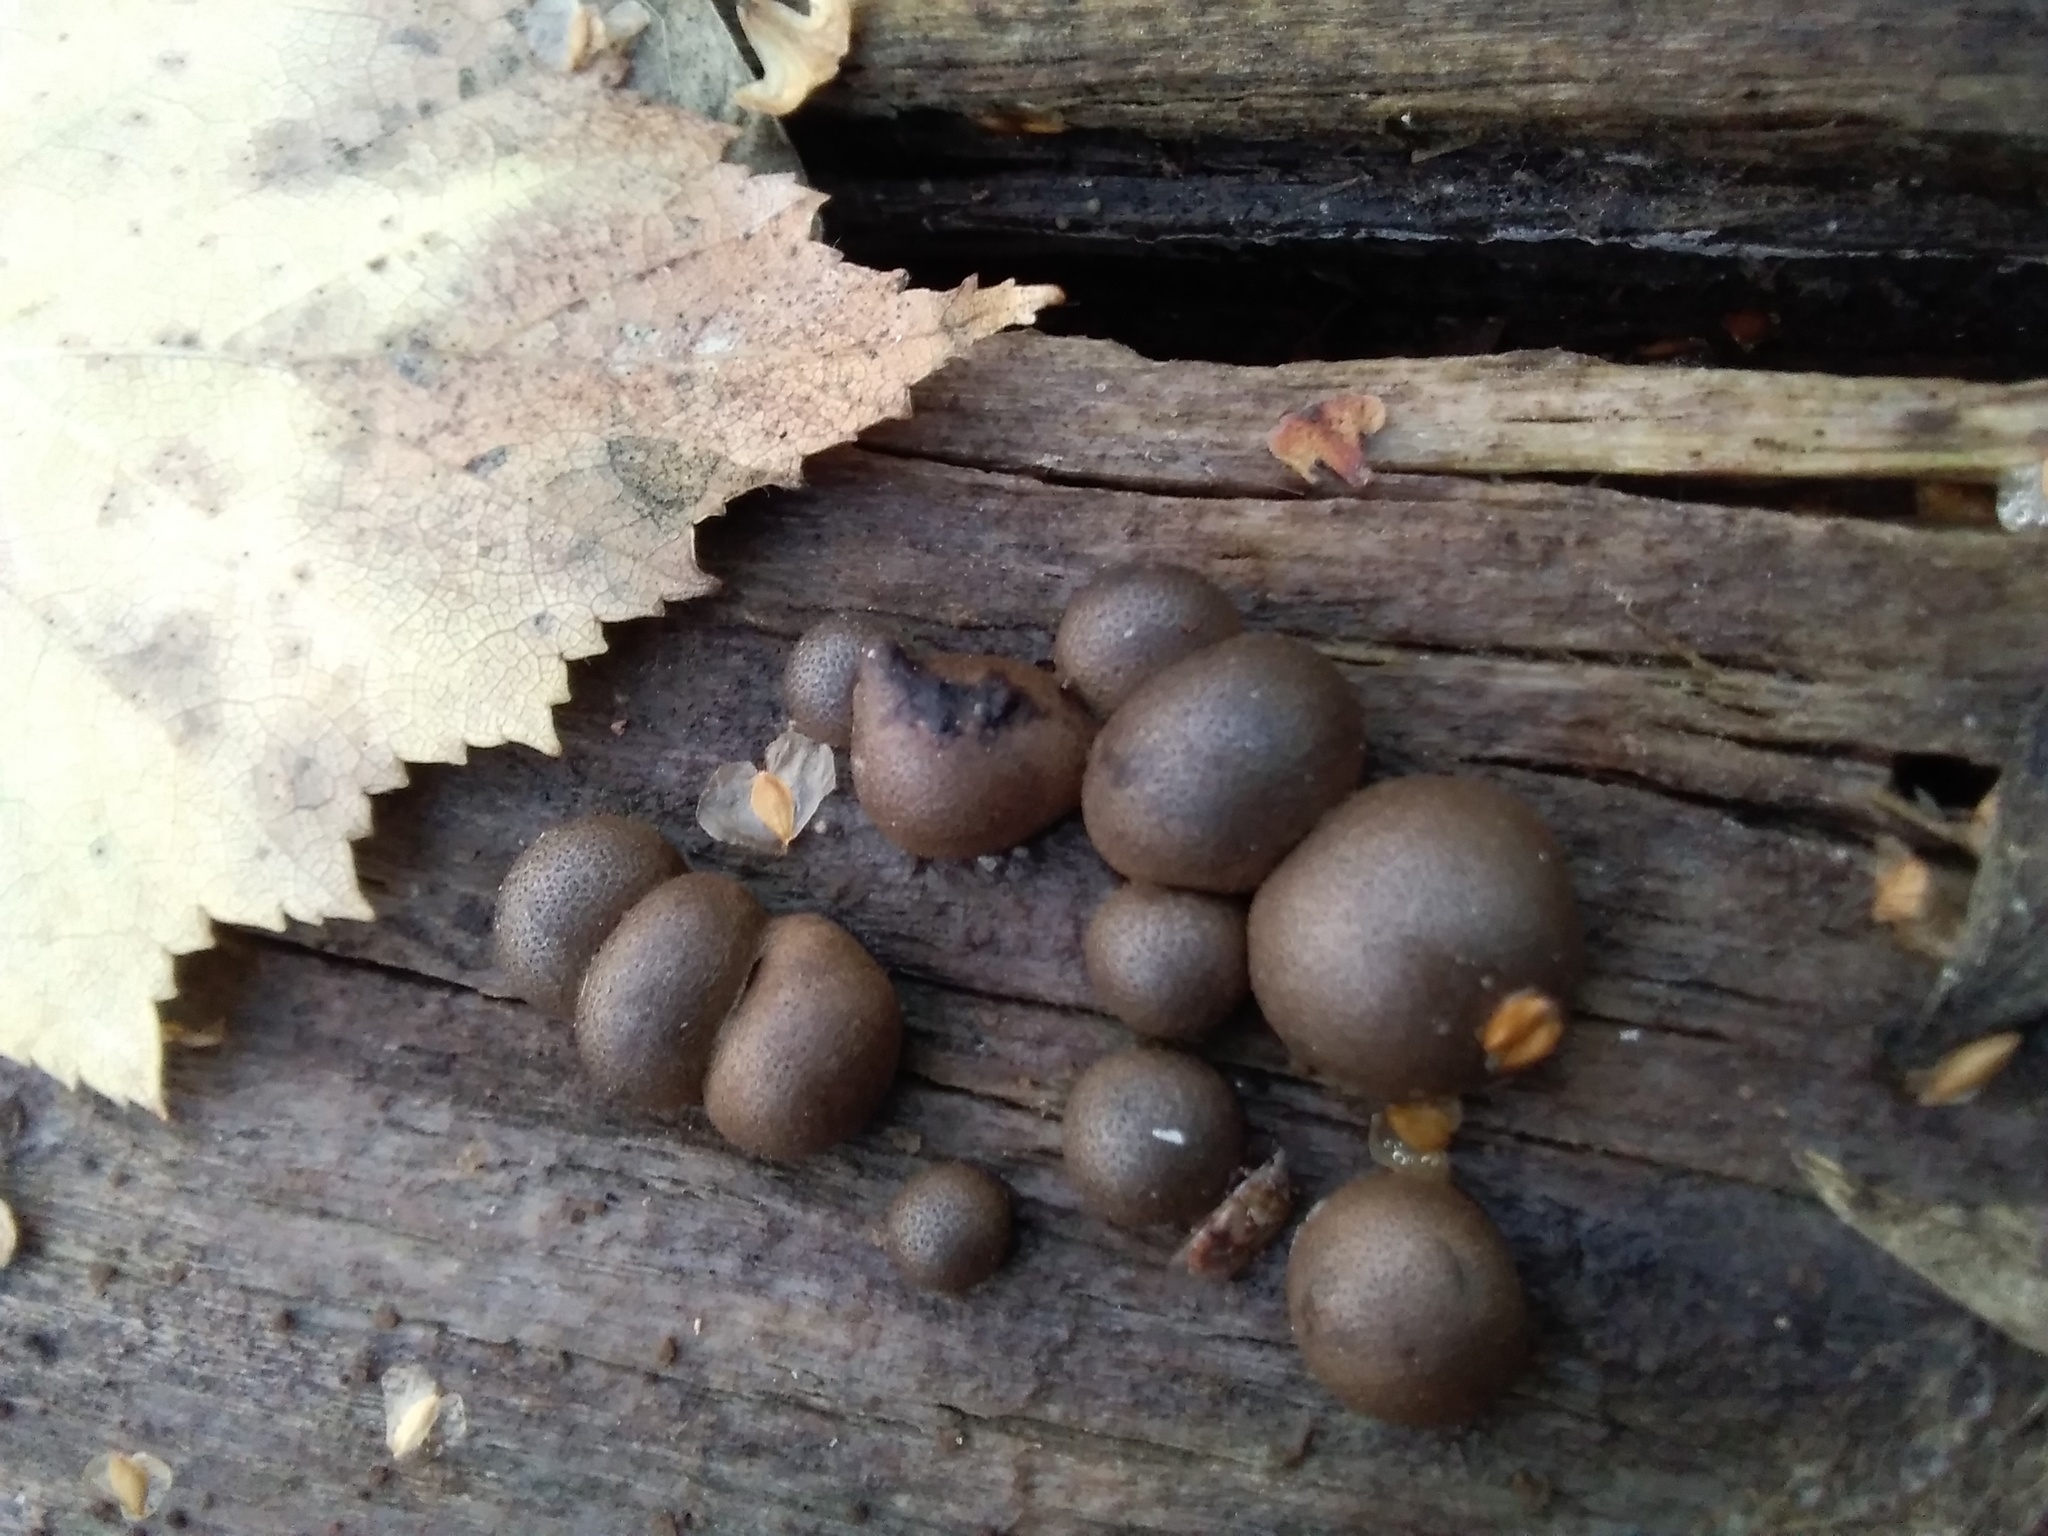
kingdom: Protozoa
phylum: Mycetozoa
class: Myxomycetes
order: Cribrariales
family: Tubiferaceae
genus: Lycogala
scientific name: Lycogala epidendrum
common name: Wolf's milk
